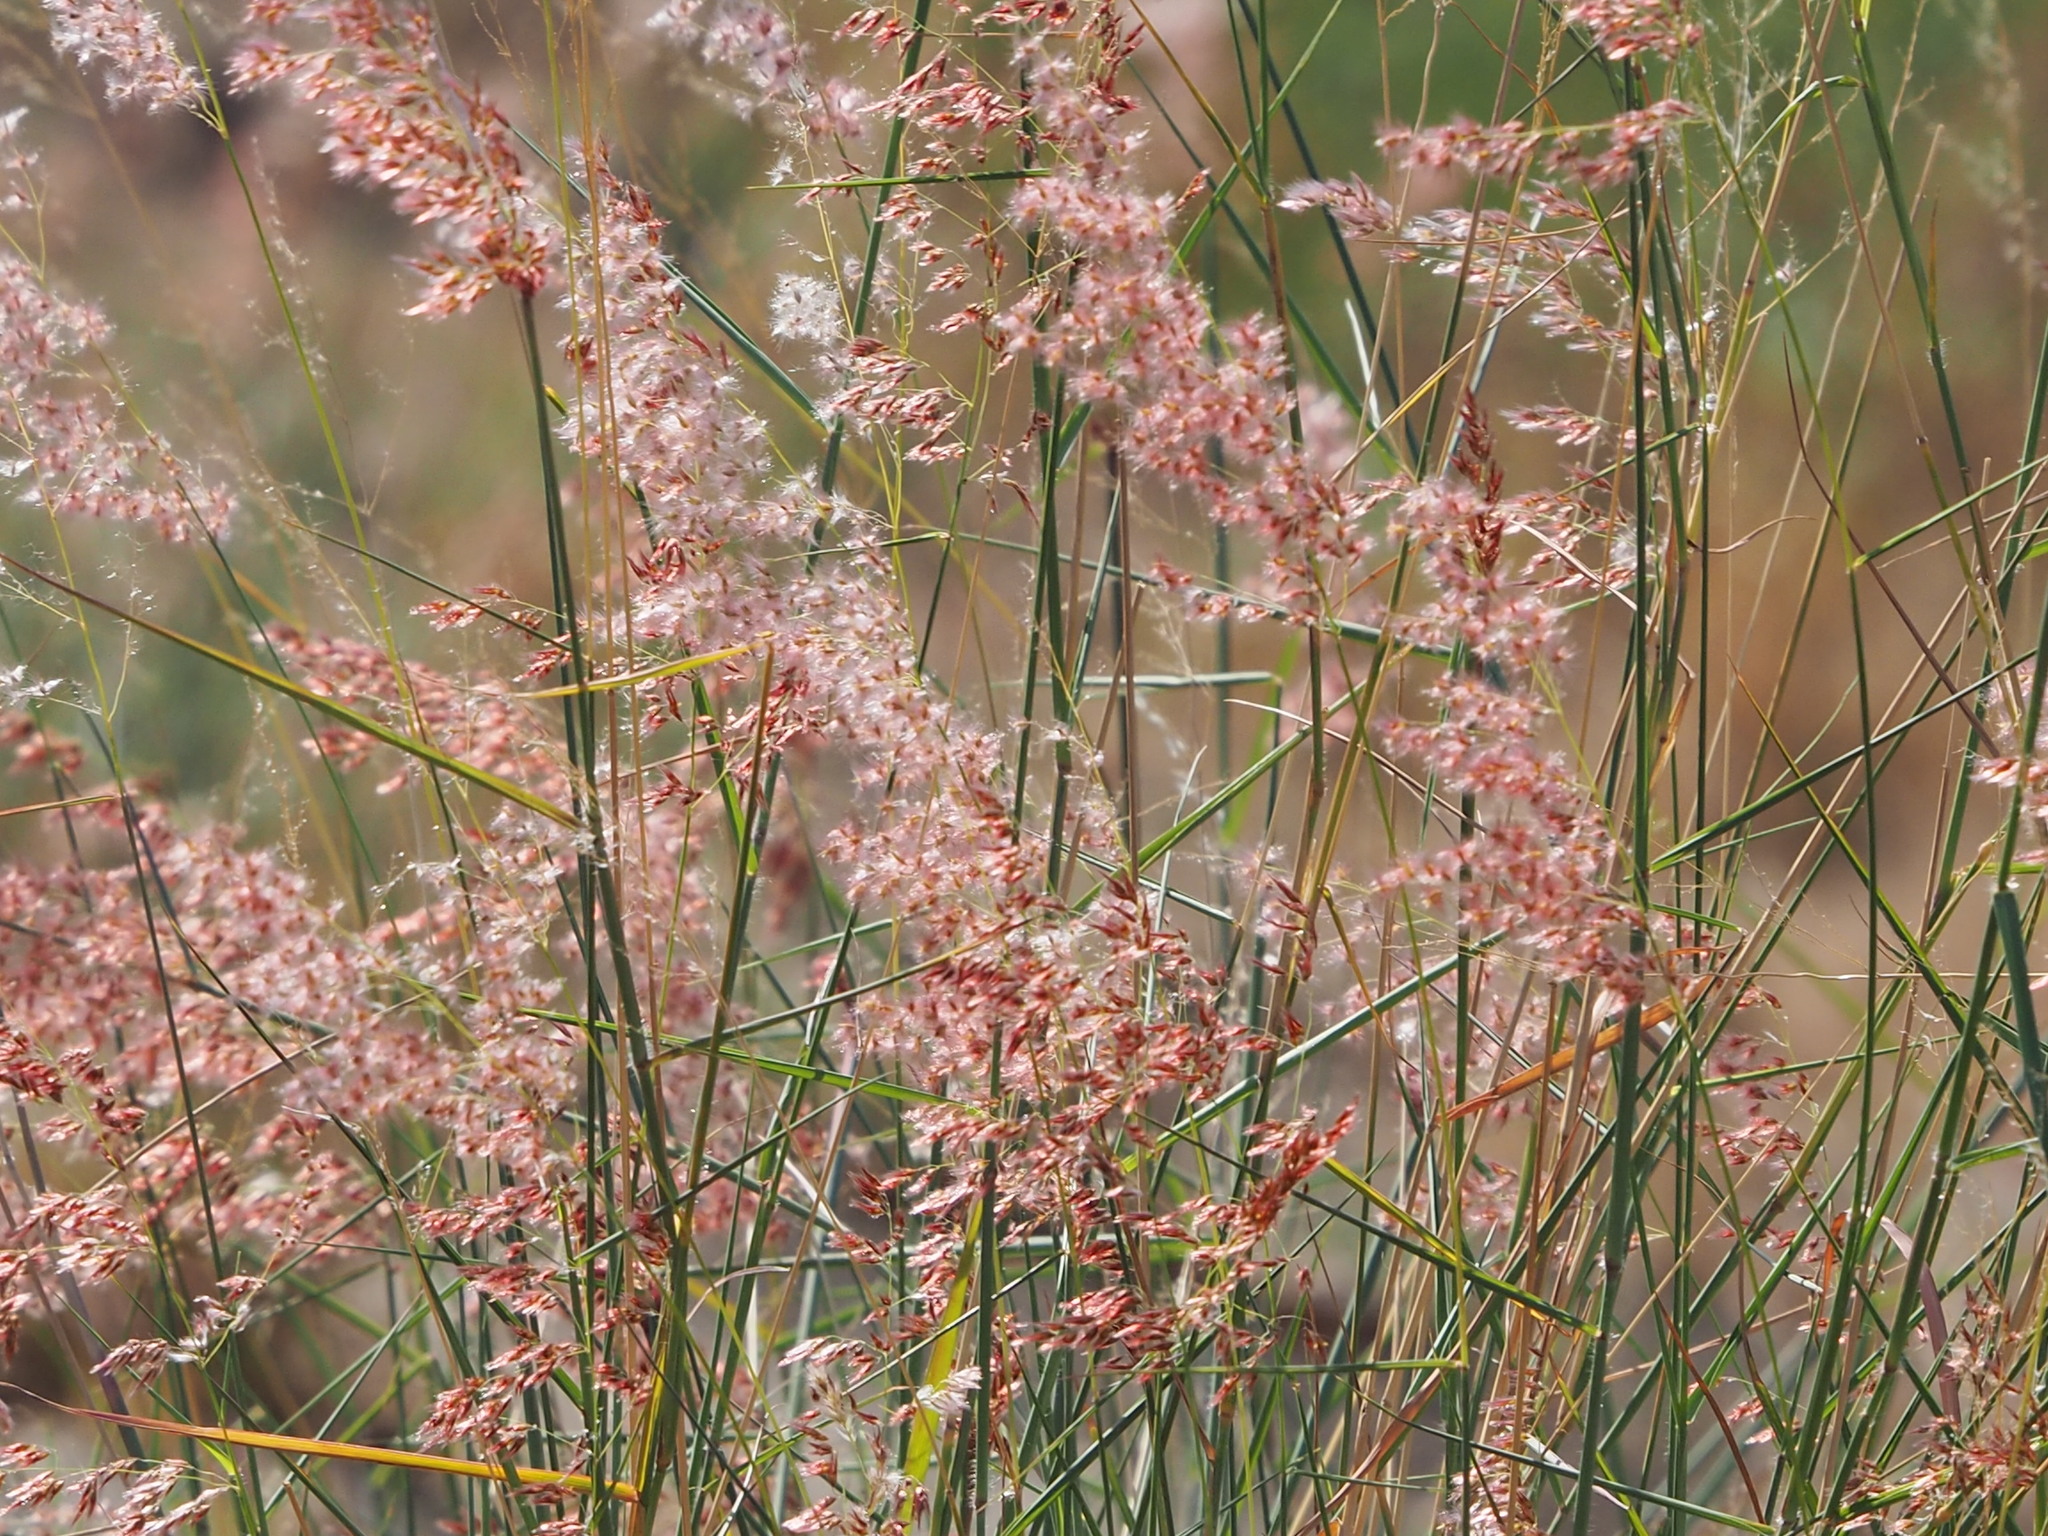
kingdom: Plantae
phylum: Tracheophyta
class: Liliopsida
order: Poales
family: Poaceae
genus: Melinis
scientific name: Melinis repens
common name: Rose natal grass
